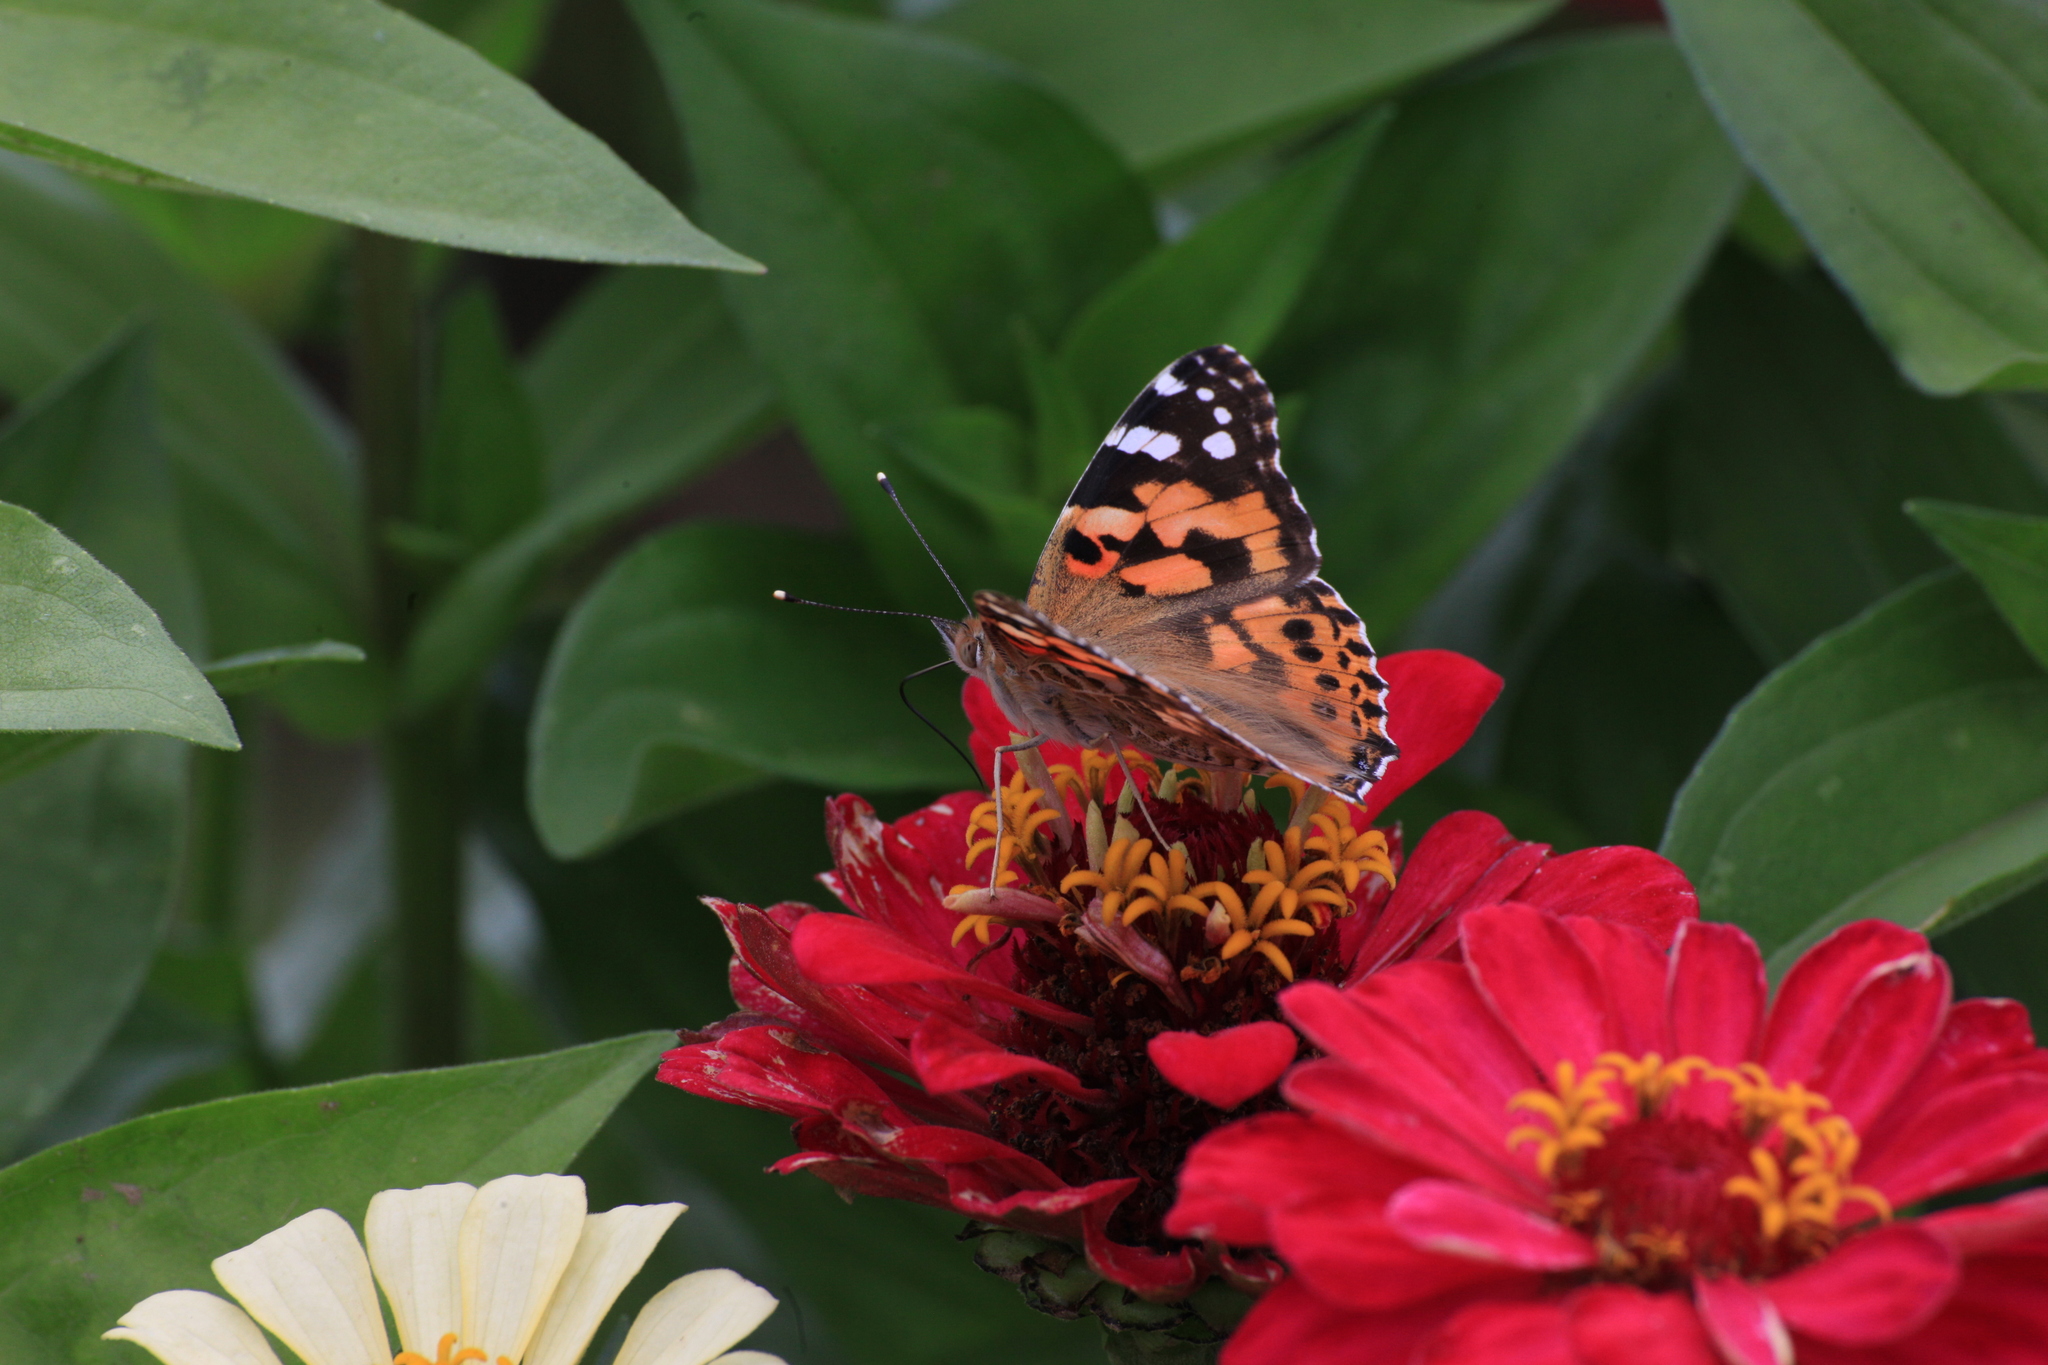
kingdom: Animalia
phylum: Arthropoda
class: Insecta
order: Lepidoptera
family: Nymphalidae
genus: Vanessa
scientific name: Vanessa cardui
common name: Painted lady
